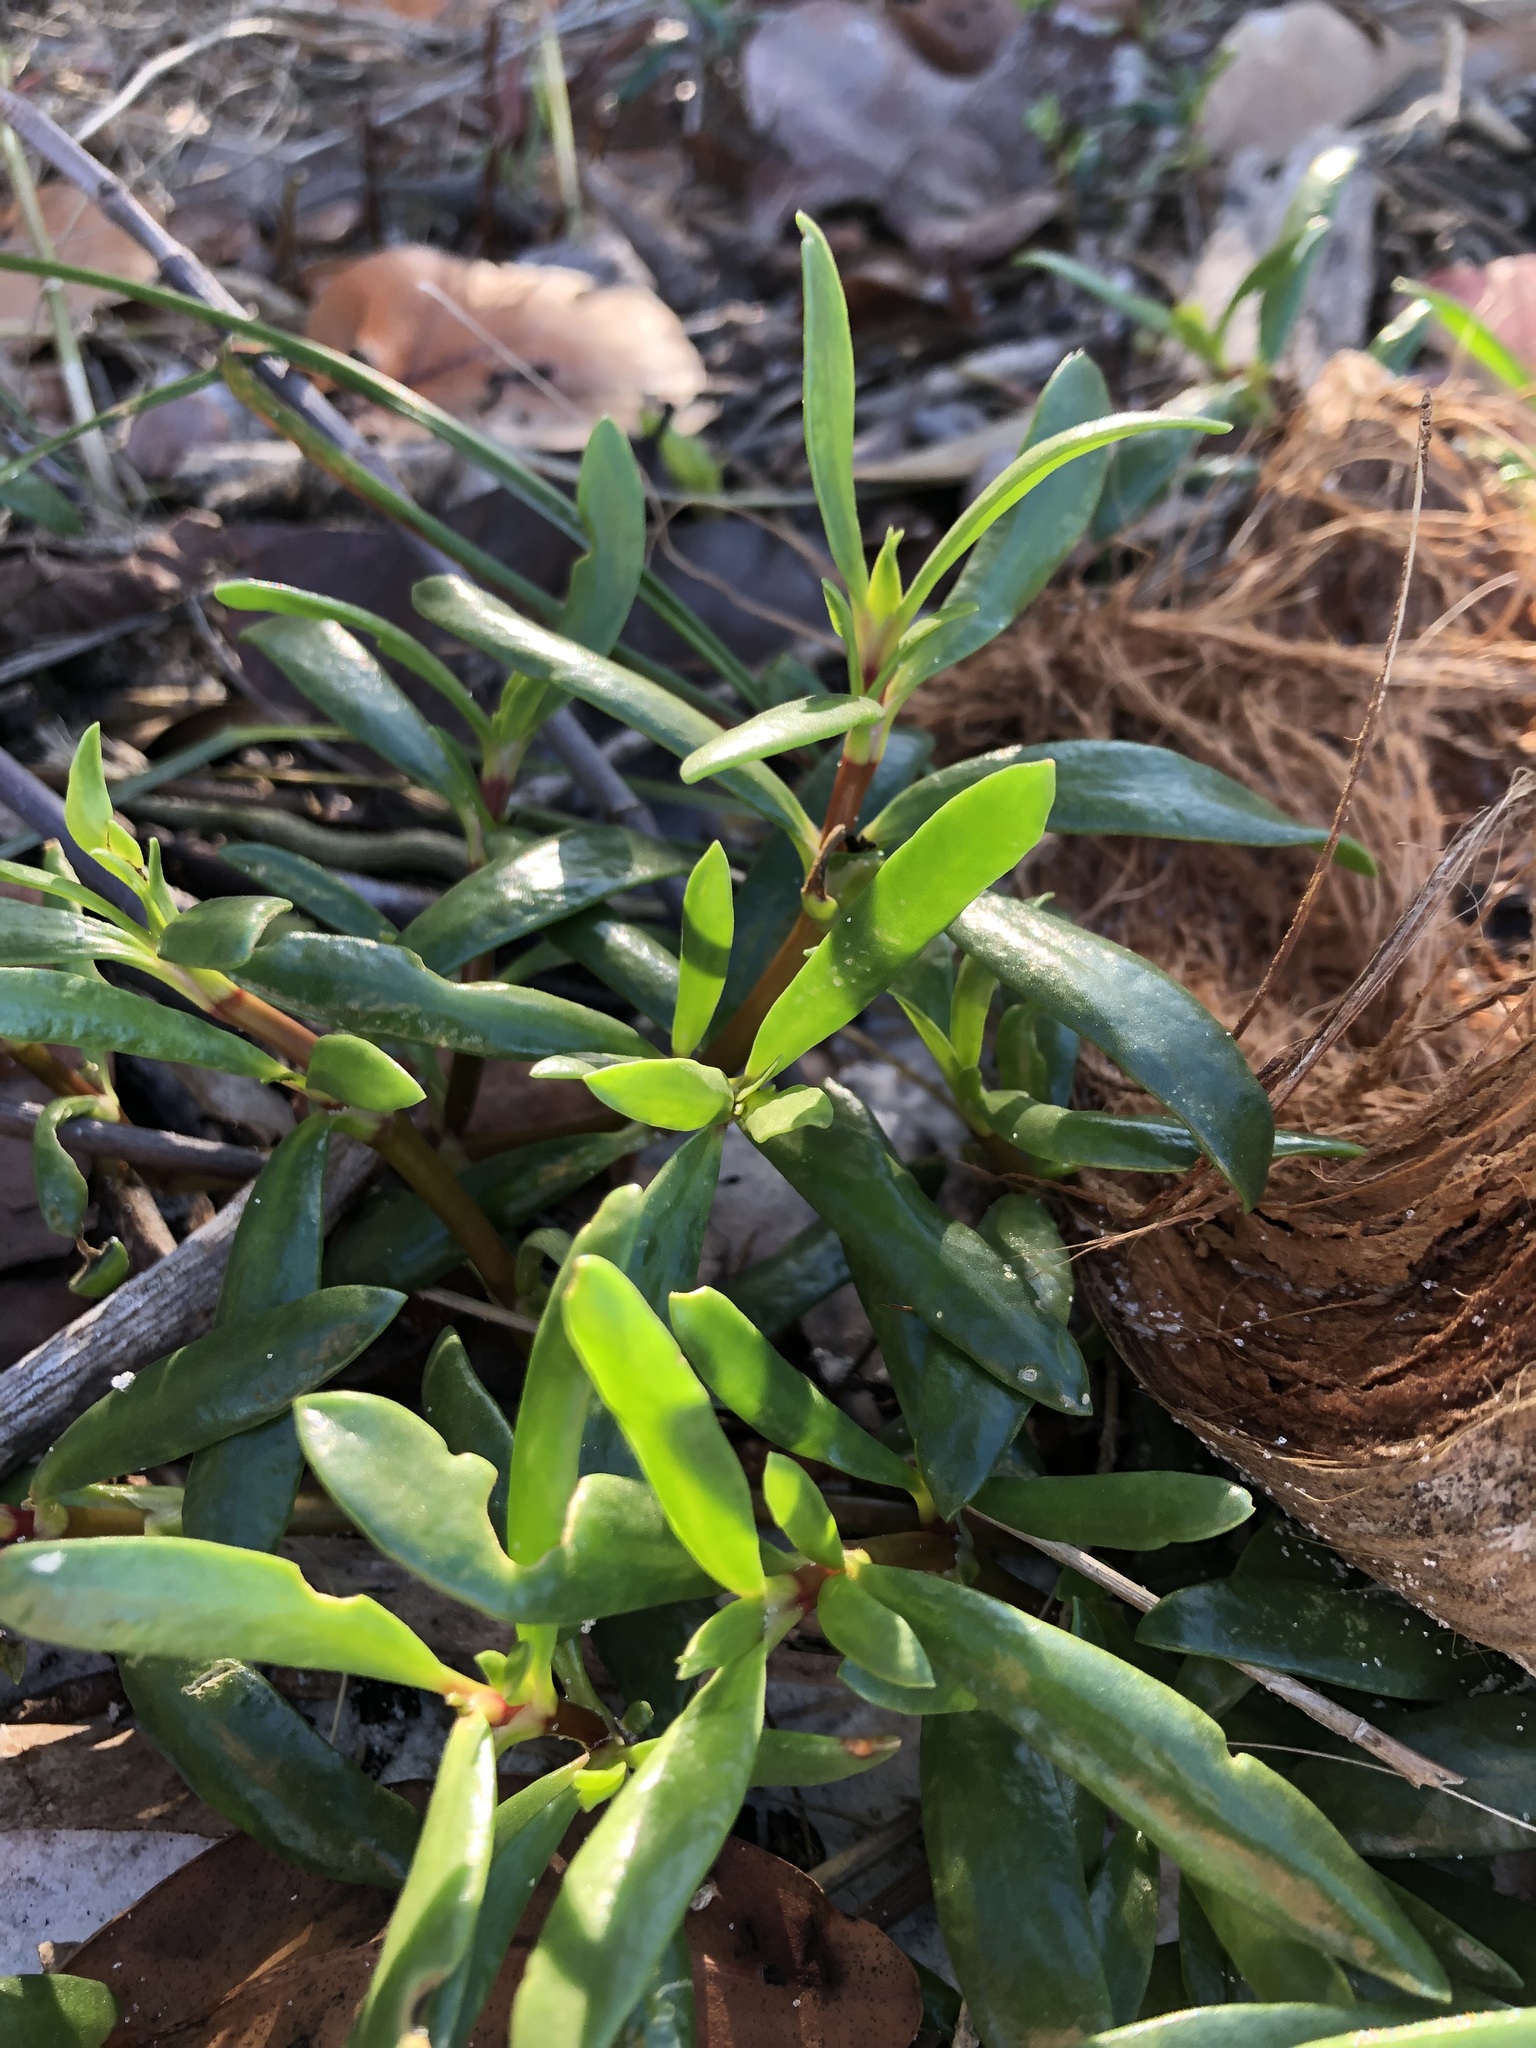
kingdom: Plantae
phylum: Tracheophyta
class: Magnoliopsida
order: Caryophyllales
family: Aizoaceae
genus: Sesuvium
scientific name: Sesuvium portulacastrum
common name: Sea-purslane
